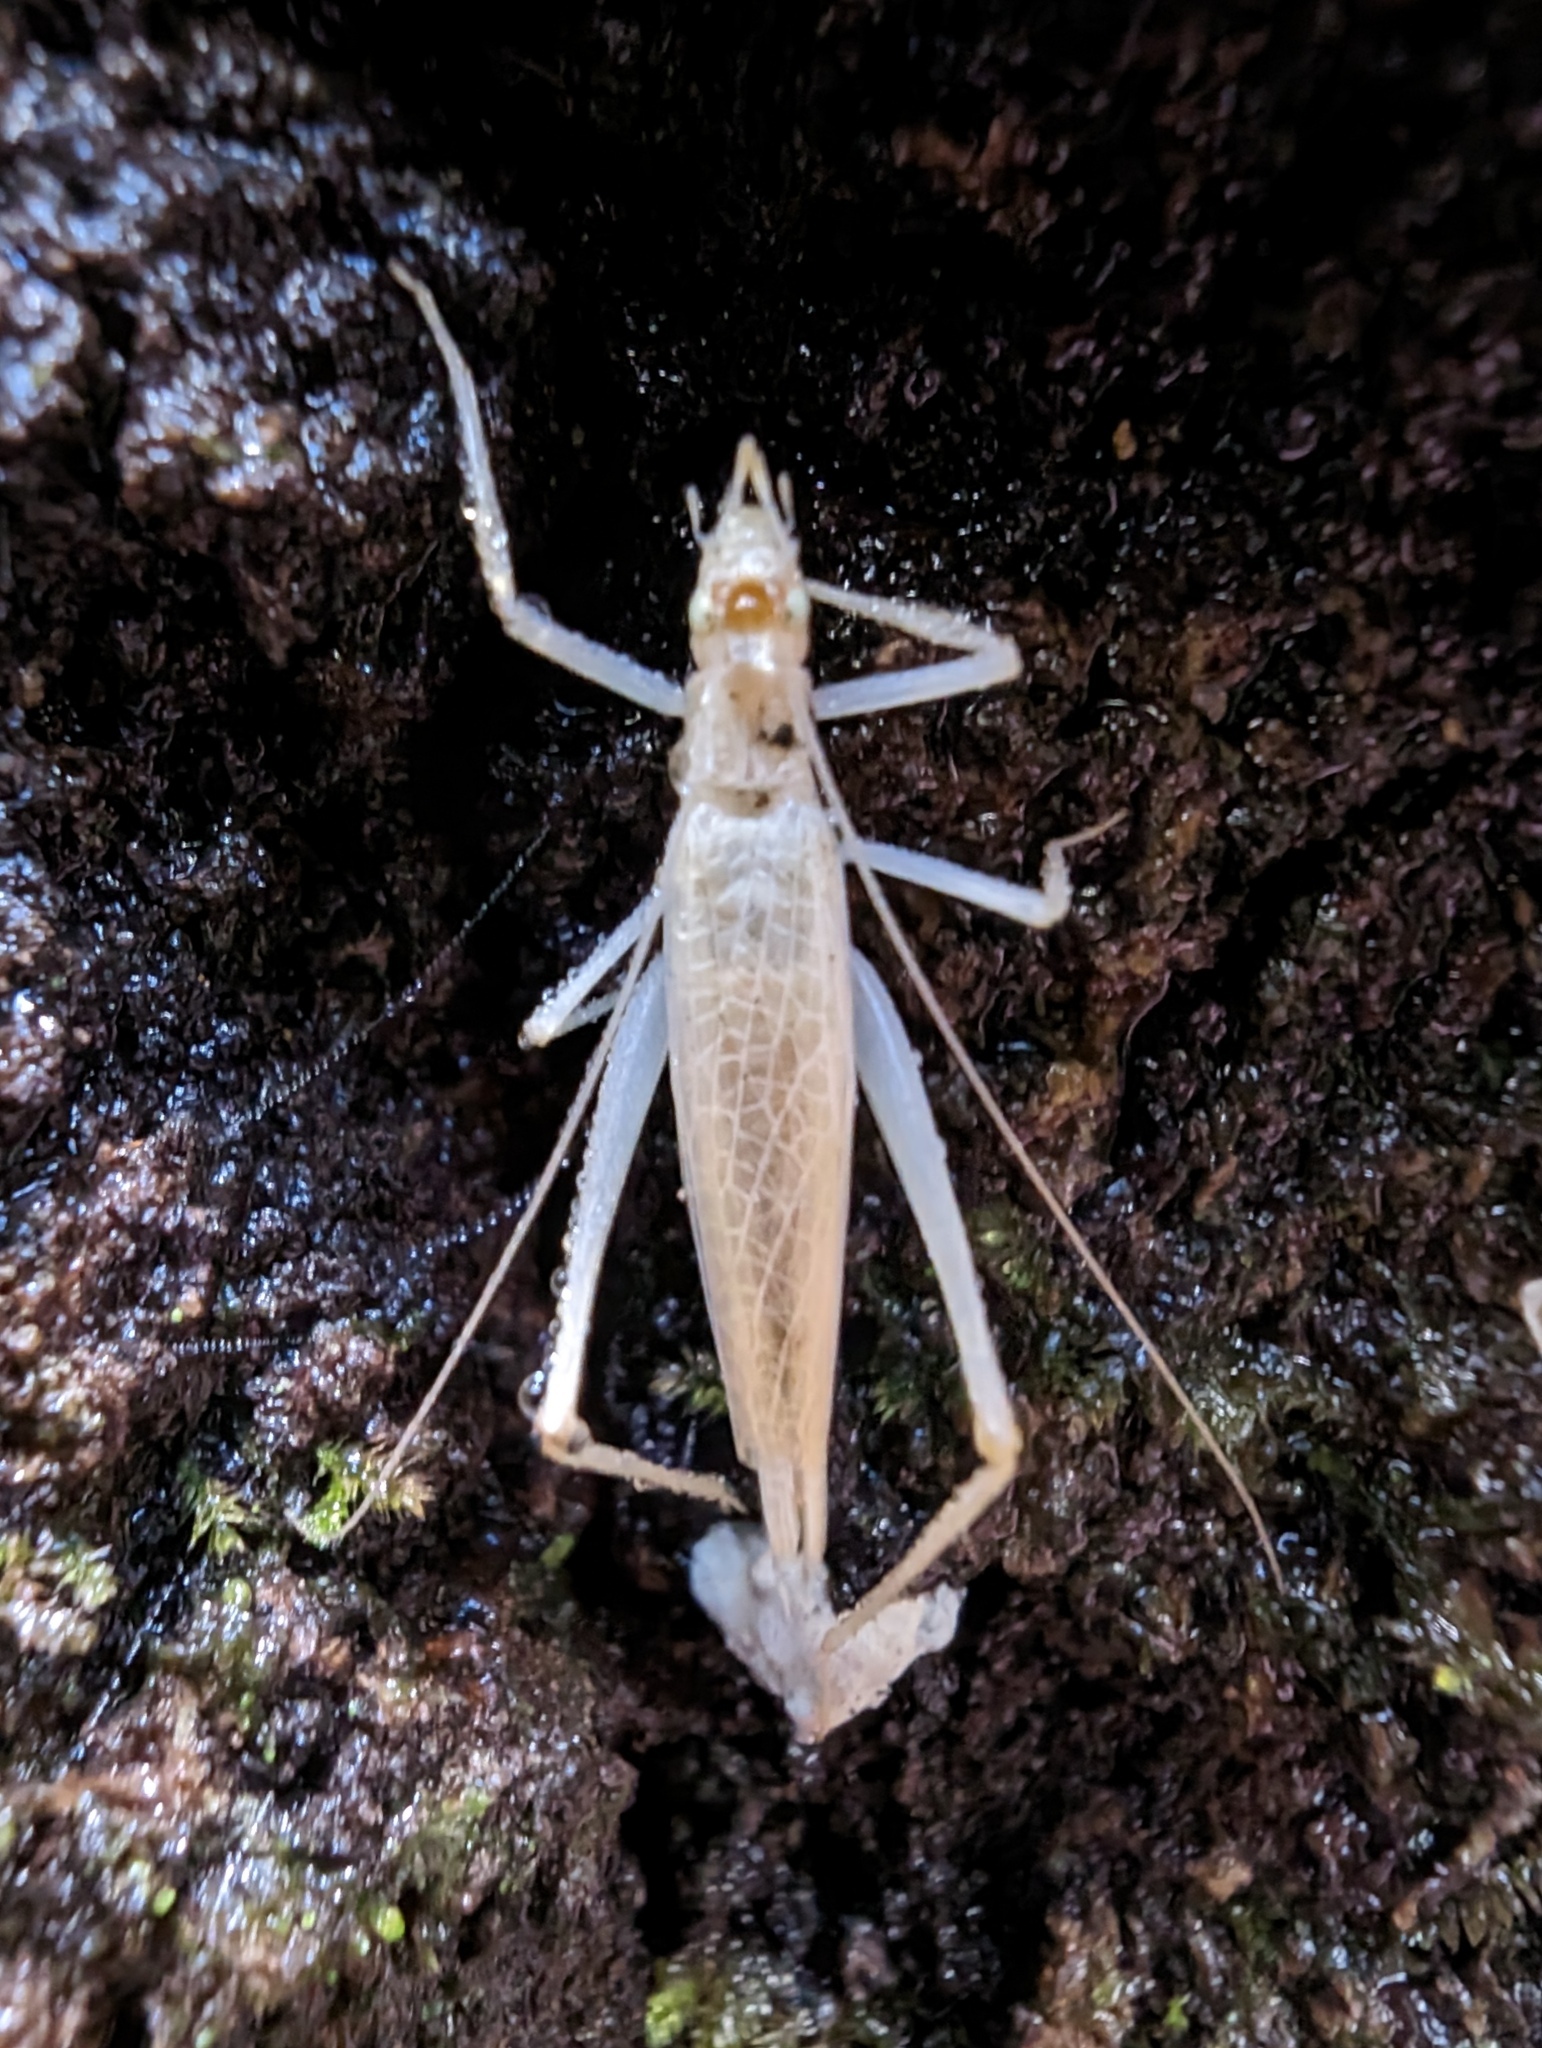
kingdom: Animalia
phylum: Arthropoda
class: Insecta
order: Orthoptera
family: Gryllidae
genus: Oecanthus
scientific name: Oecanthus californicus
